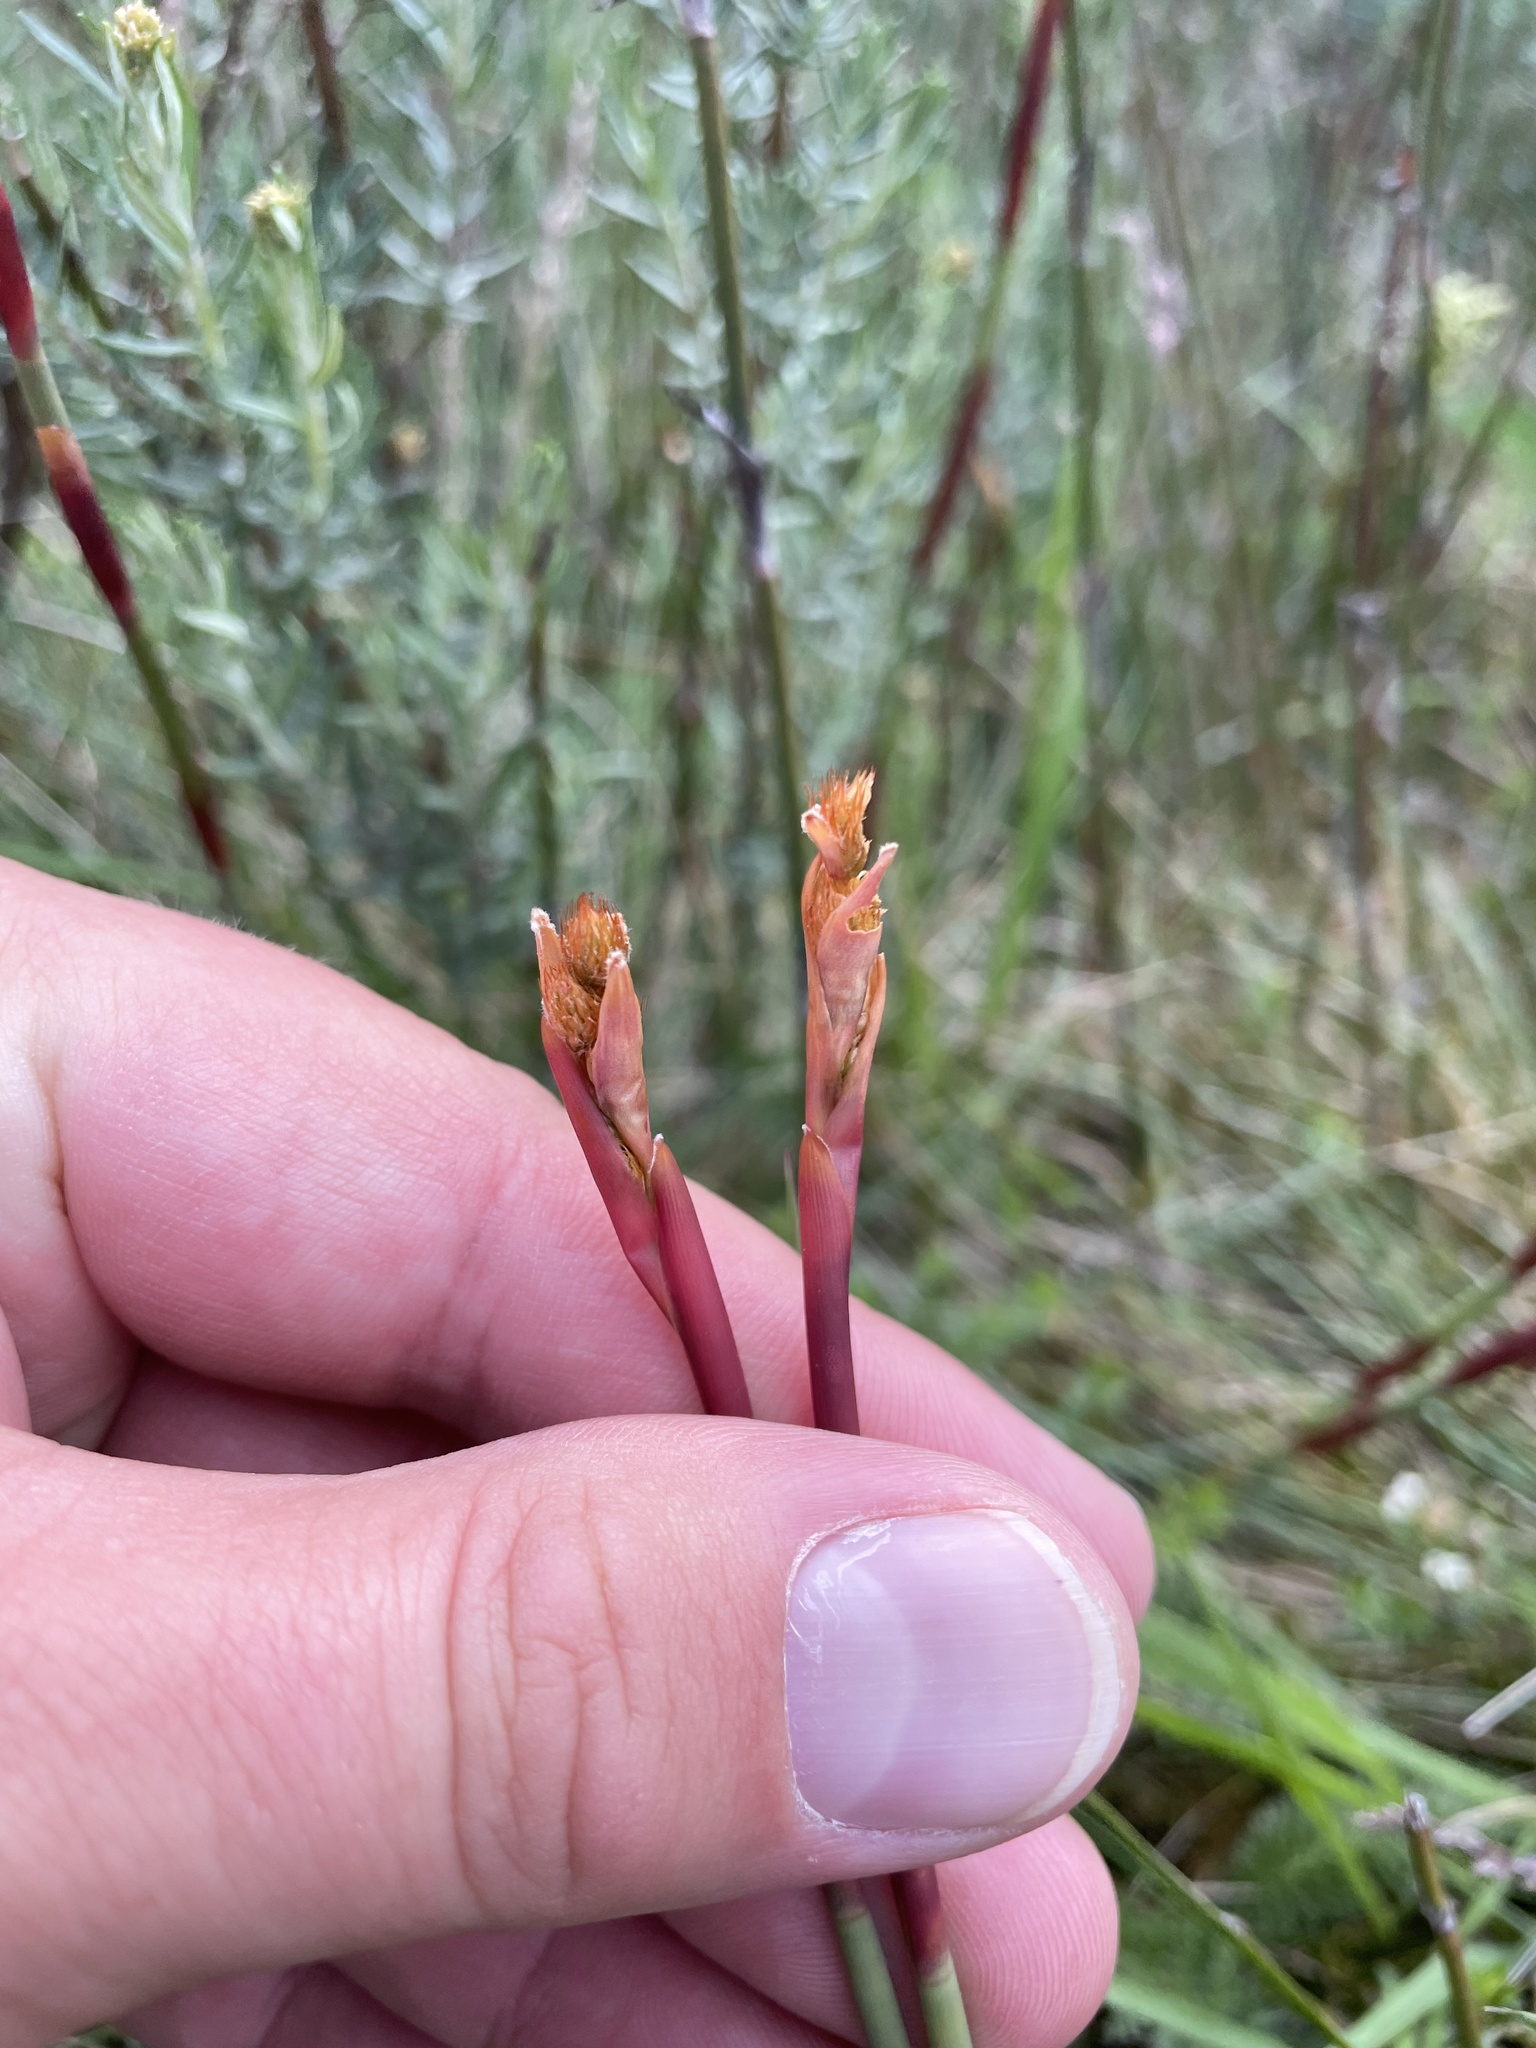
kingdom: Plantae
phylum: Tracheophyta
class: Liliopsida
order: Poales
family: Restionaceae
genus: Baloskion
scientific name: Baloskion australe
